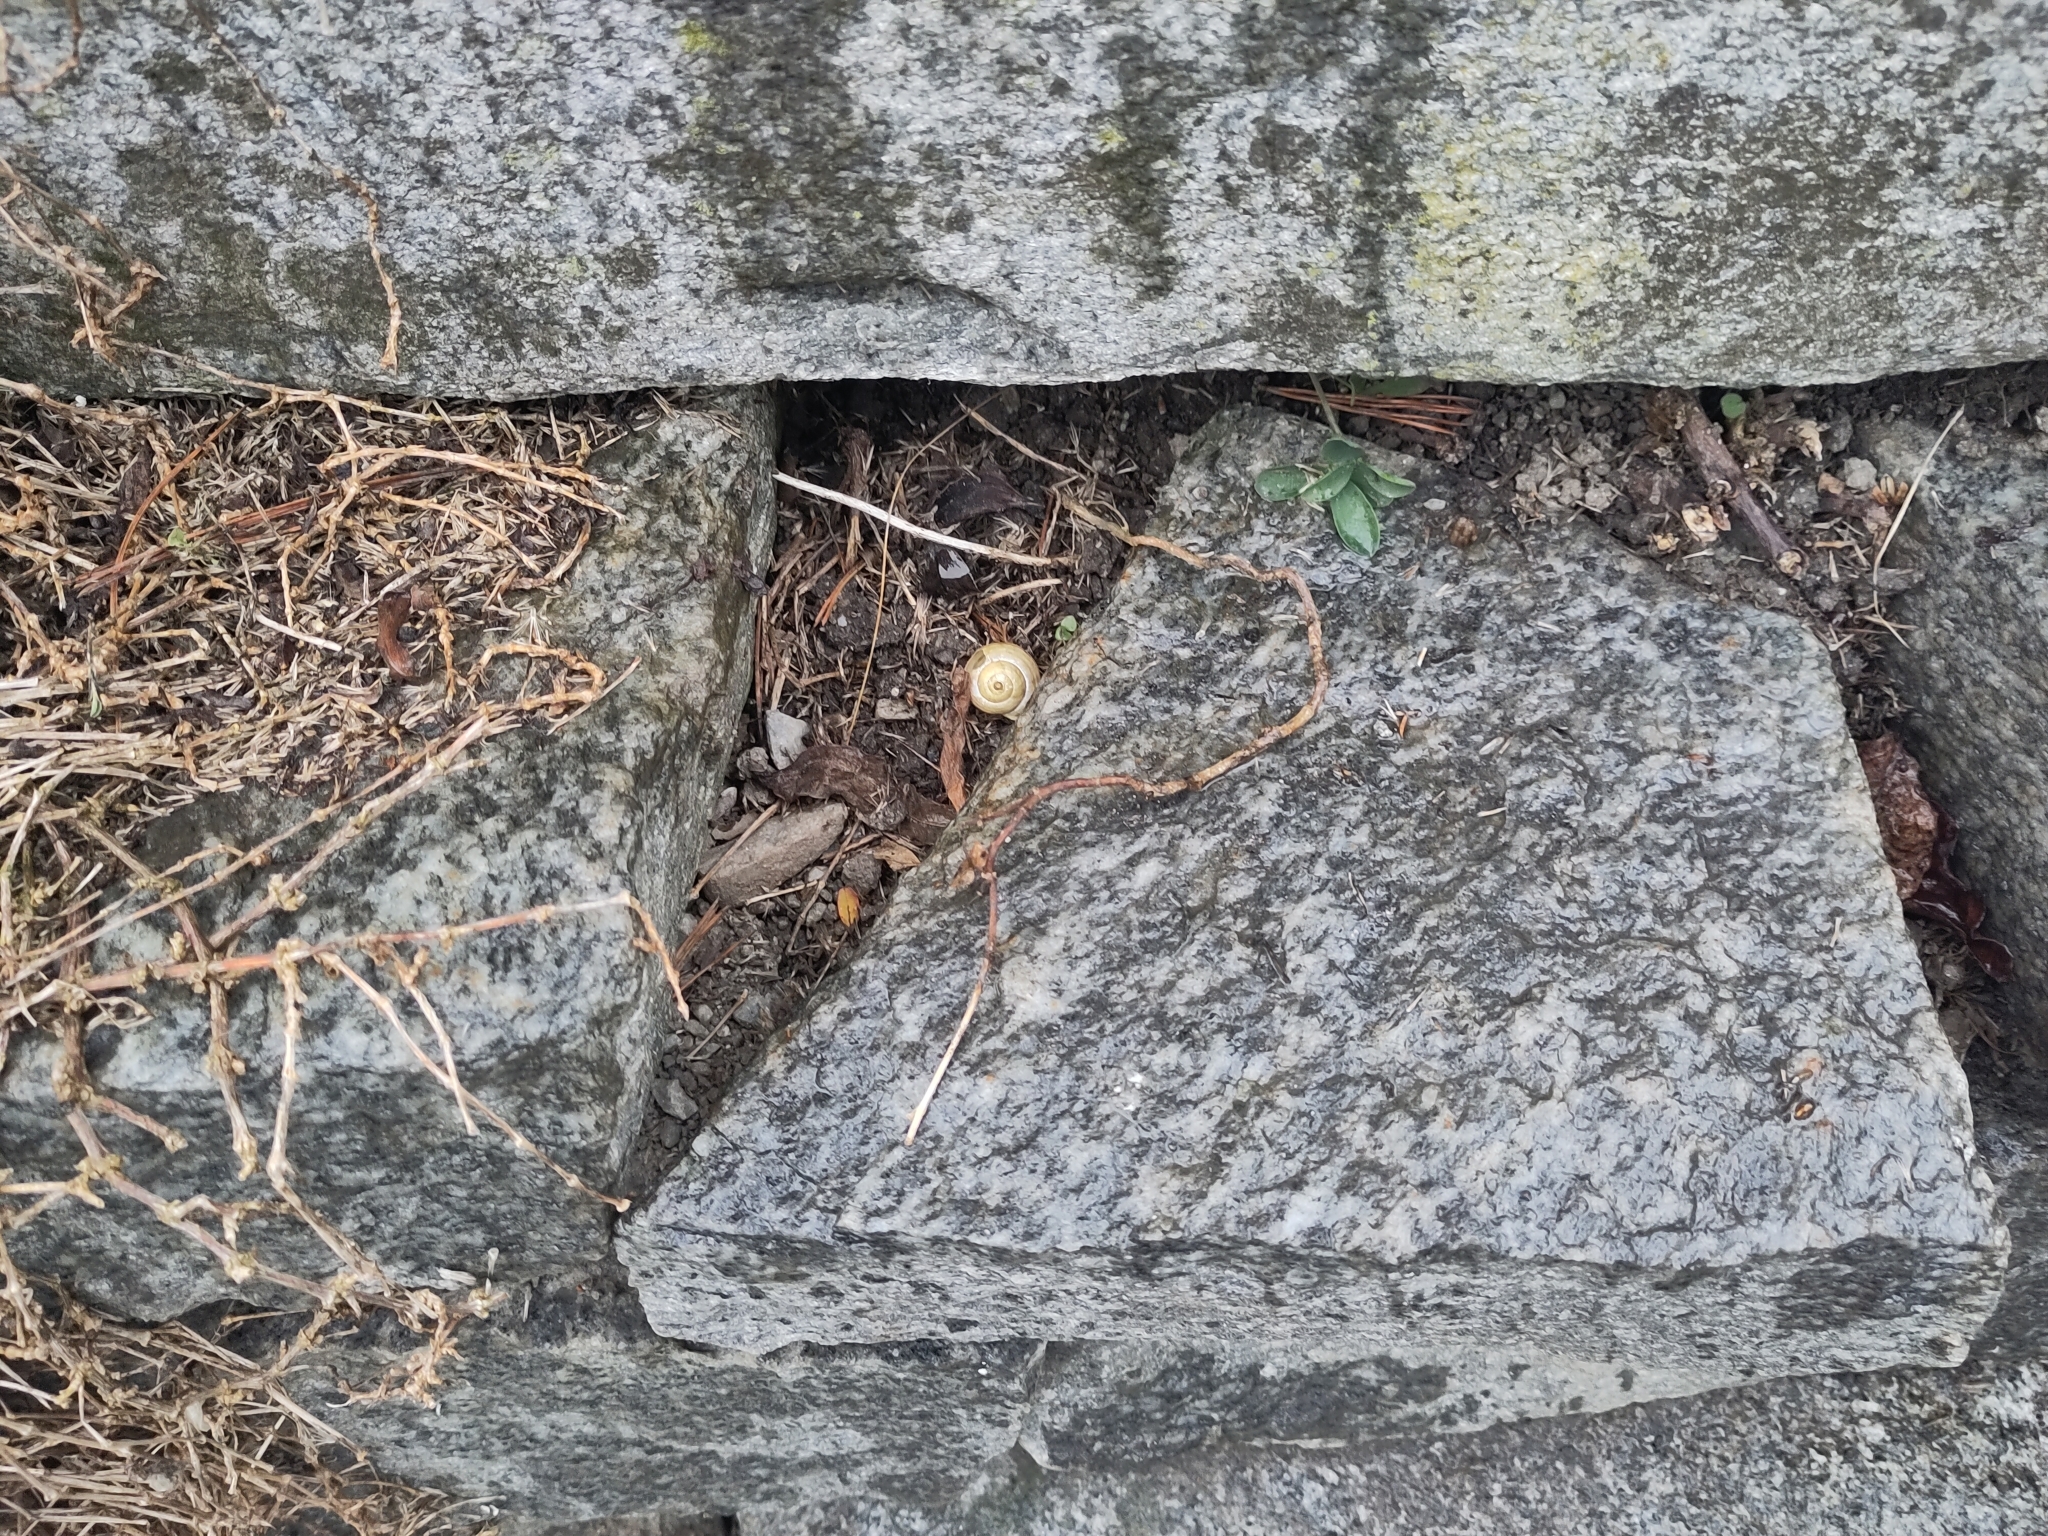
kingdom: Animalia
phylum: Mollusca
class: Gastropoda
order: Stylommatophora
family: Helicidae
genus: Cepaea
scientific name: Cepaea hortensis
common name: White-lip gardensnail
